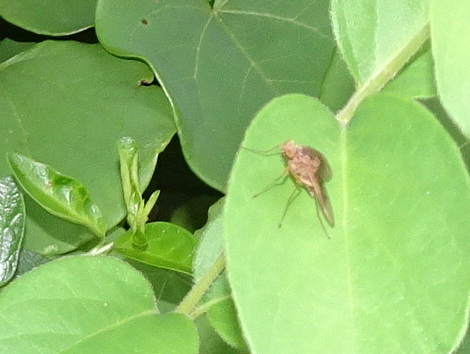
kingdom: Animalia
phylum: Arthropoda
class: Insecta
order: Diptera
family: Rhagionidae
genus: Chrysopilus
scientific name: Chrysopilus quadratus
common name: Quadrate snipe fly
